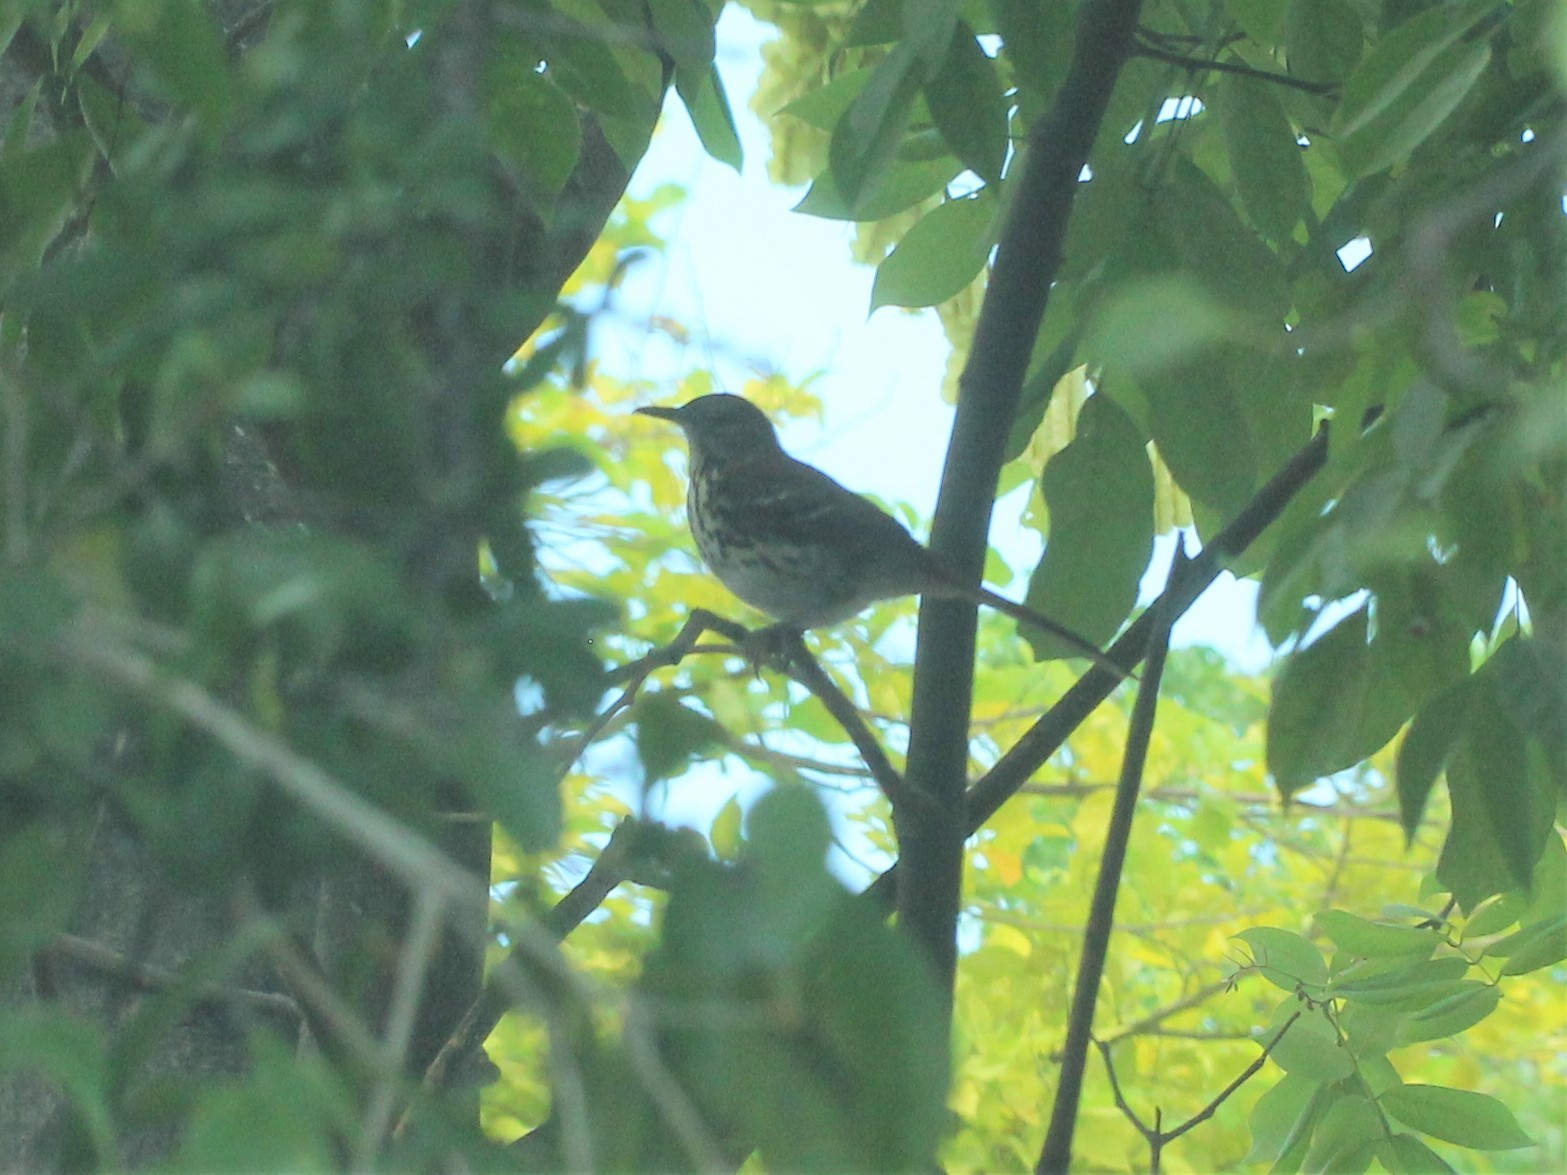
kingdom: Animalia
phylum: Chordata
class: Aves
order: Passeriformes
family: Mimidae
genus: Toxostoma
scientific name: Toxostoma rufum
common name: Brown thrasher
